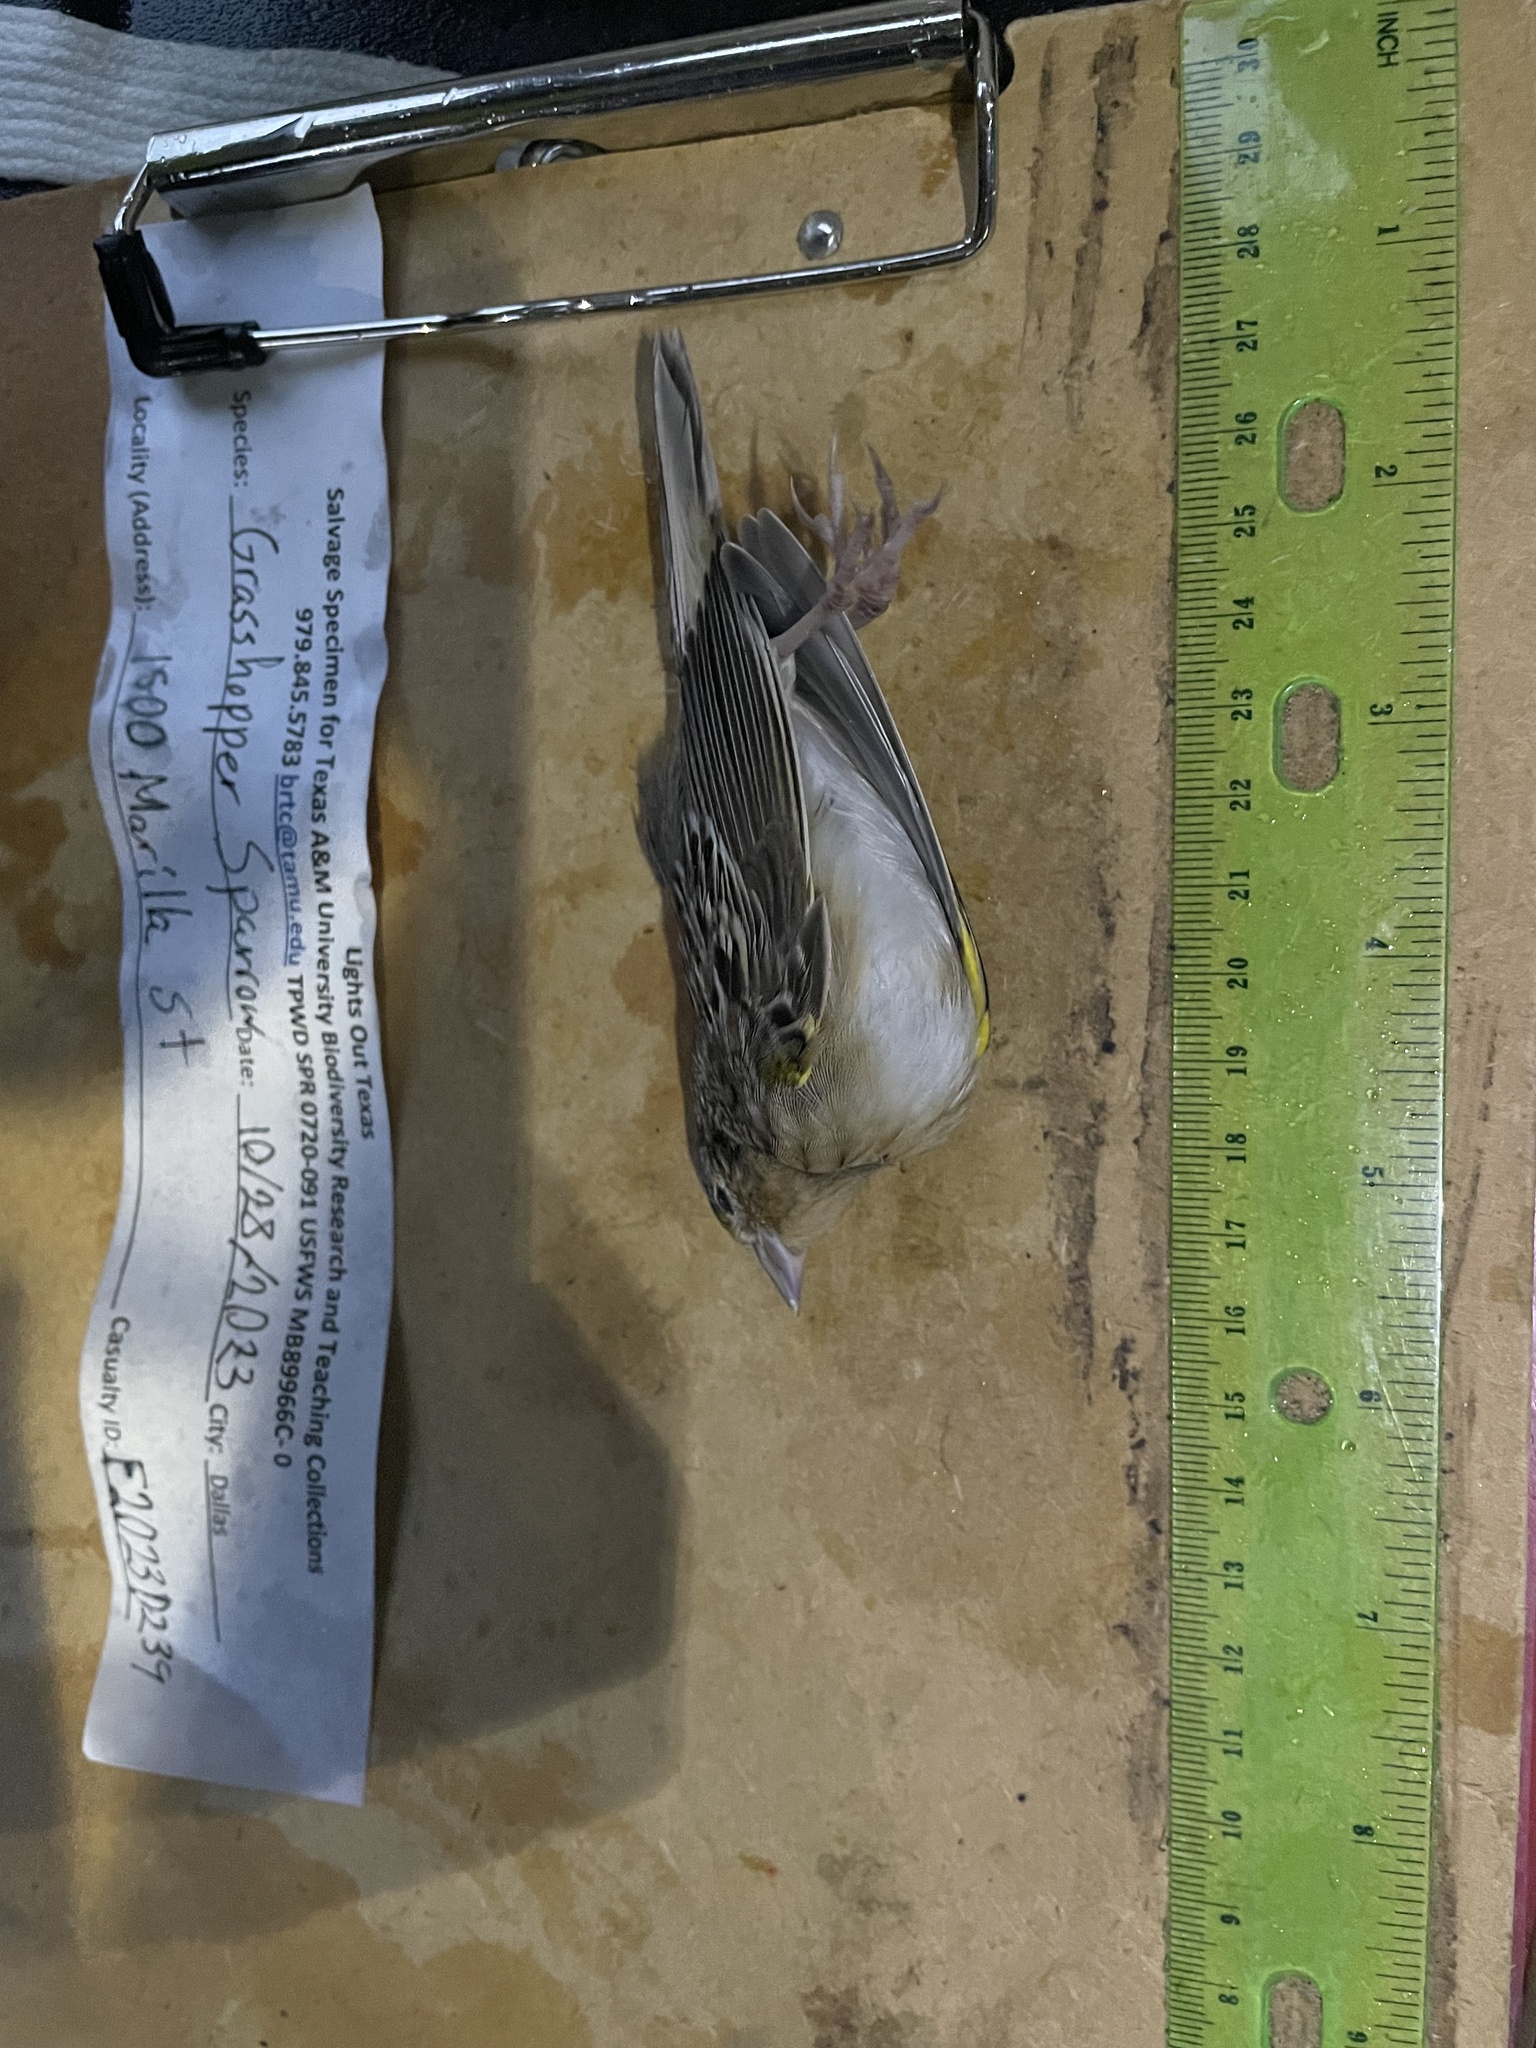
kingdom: Animalia
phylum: Chordata
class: Aves
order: Passeriformes
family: Passerellidae
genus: Ammodramus
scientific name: Ammodramus savannarum
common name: Grasshopper sparrow
